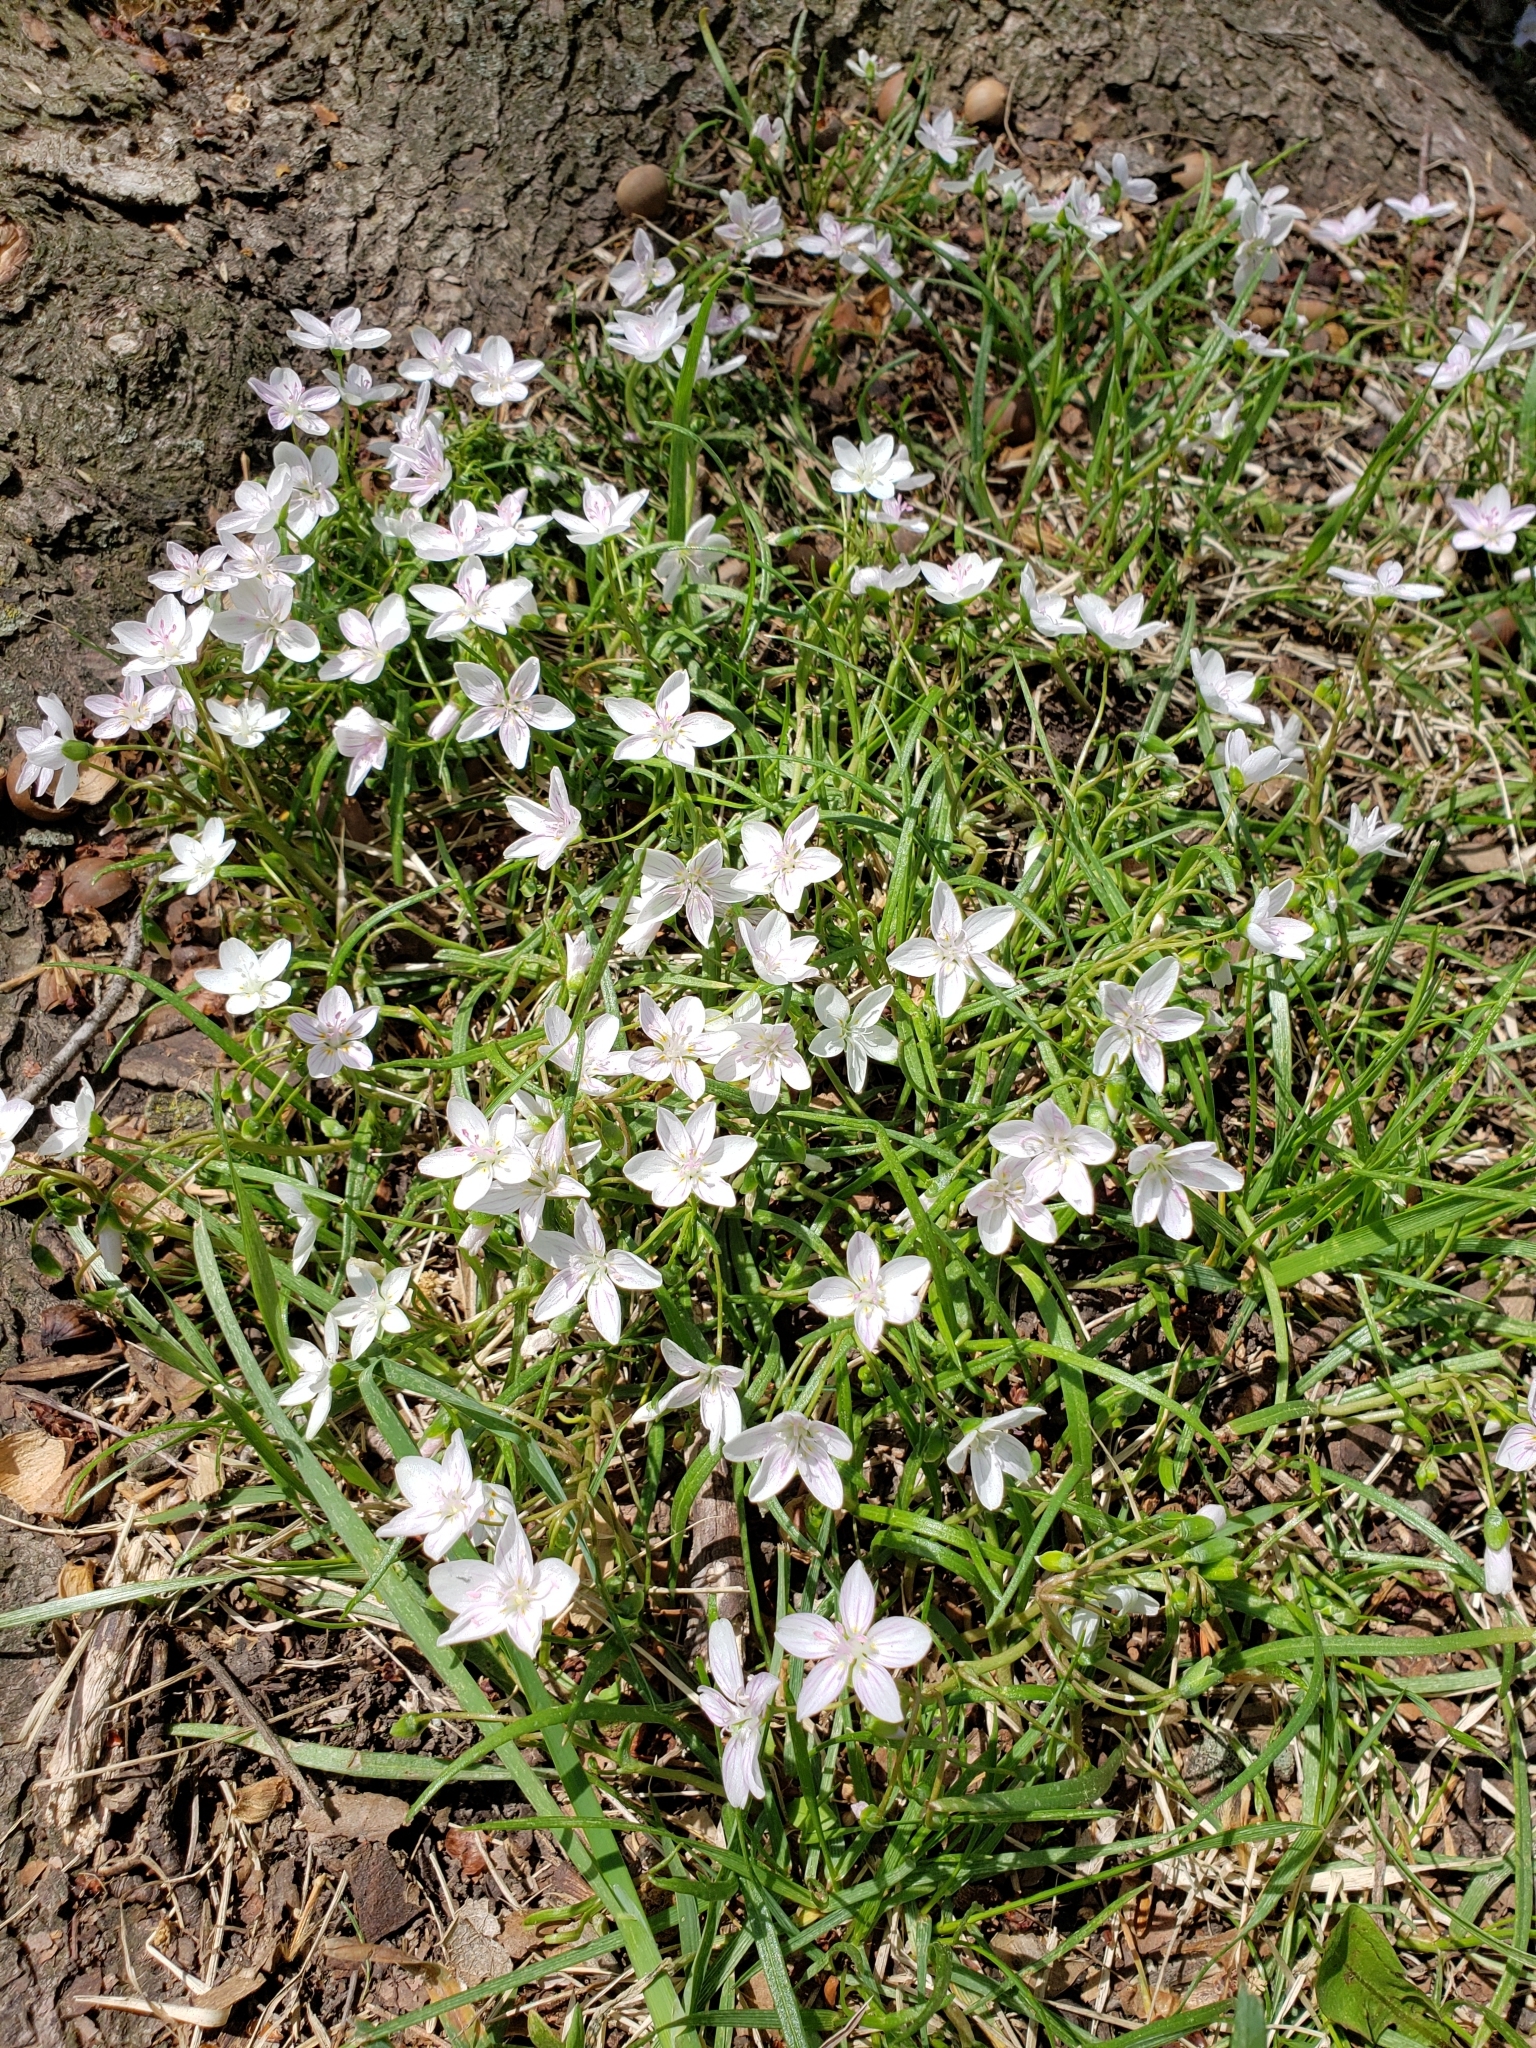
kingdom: Plantae
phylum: Tracheophyta
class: Magnoliopsida
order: Caryophyllales
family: Montiaceae
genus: Claytonia
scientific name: Claytonia virginica
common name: Virginia springbeauty
